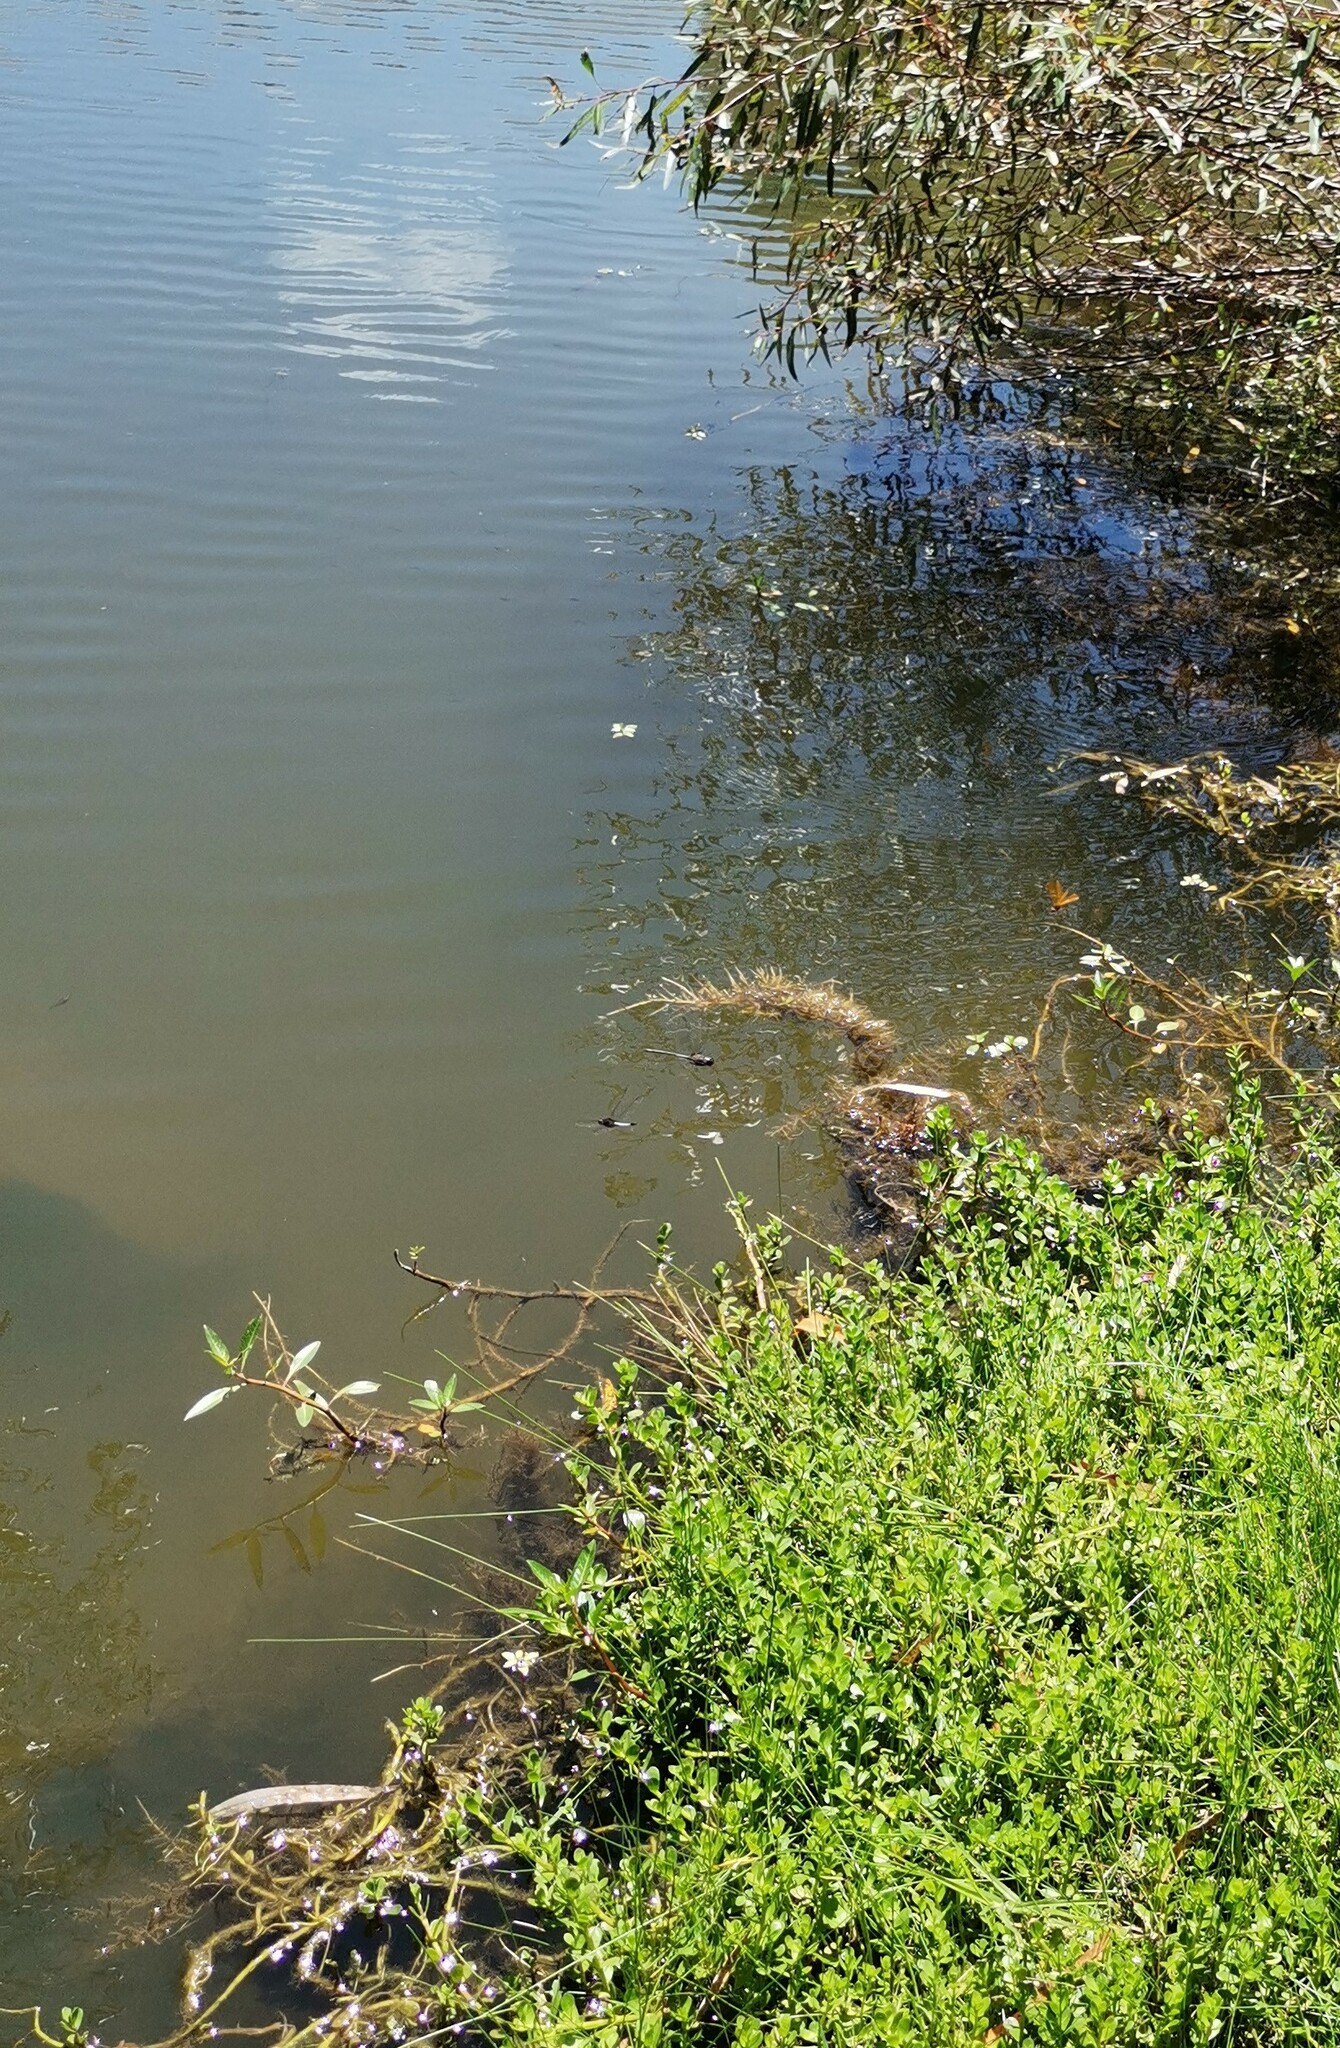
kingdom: Plantae
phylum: Tracheophyta
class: Magnoliopsida
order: Myrtales
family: Onagraceae
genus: Ludwigia
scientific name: Ludwigia peploides
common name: Floating primrose-willow
